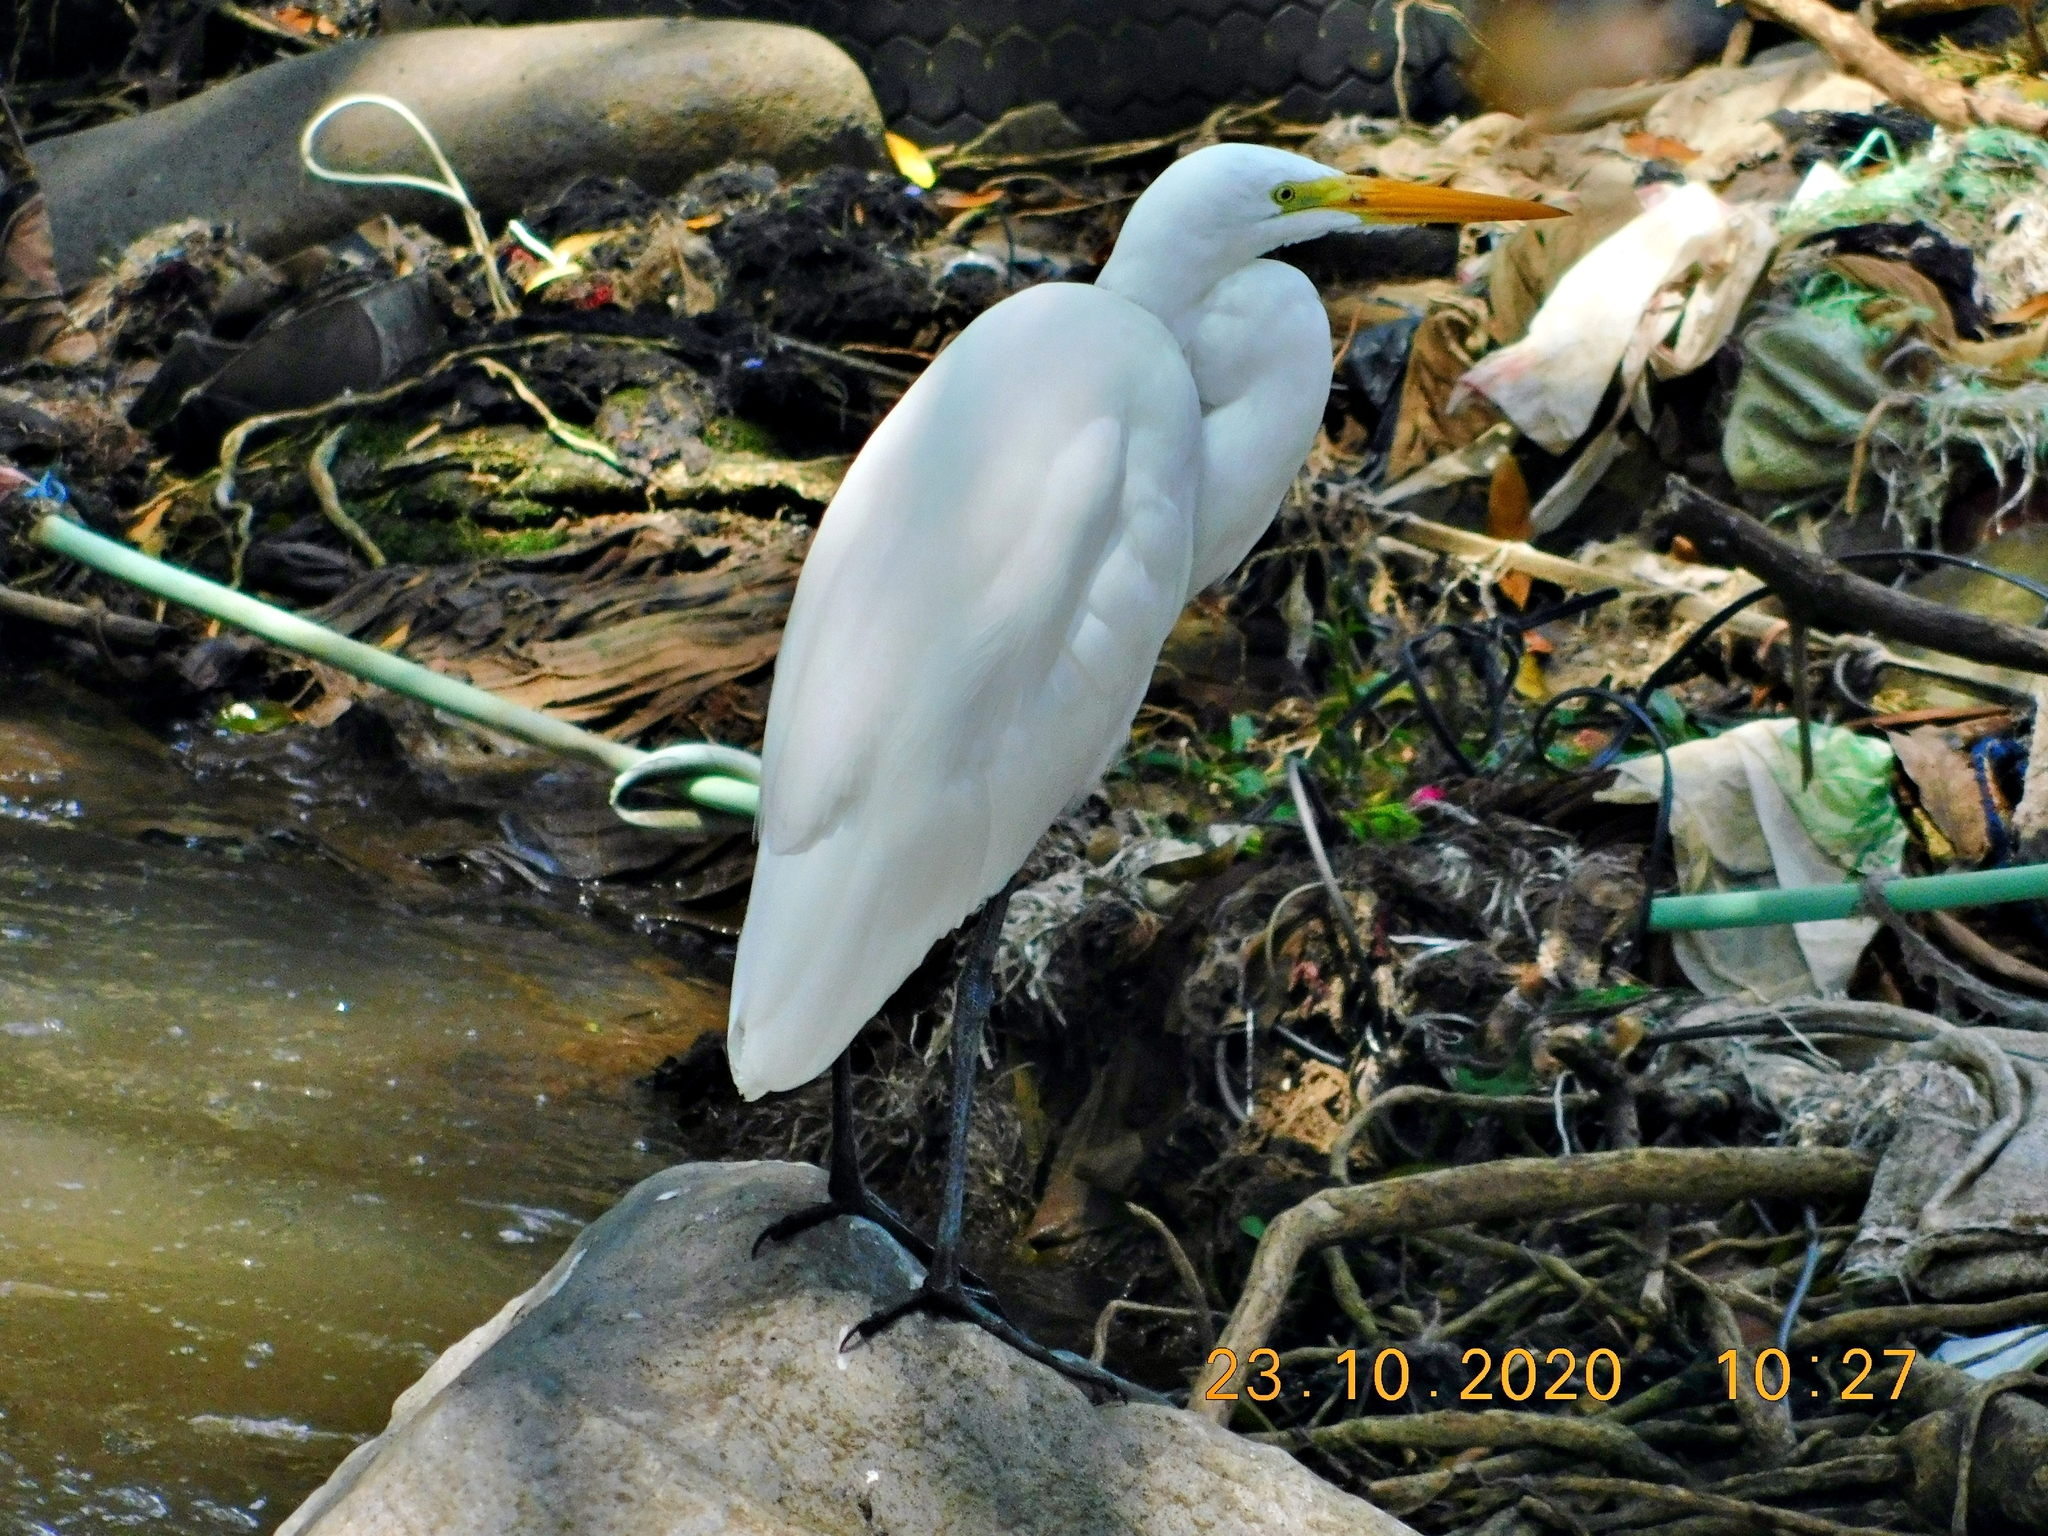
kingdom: Animalia
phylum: Chordata
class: Aves
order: Pelecaniformes
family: Ardeidae
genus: Ardea
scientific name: Ardea alba
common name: Great egret
